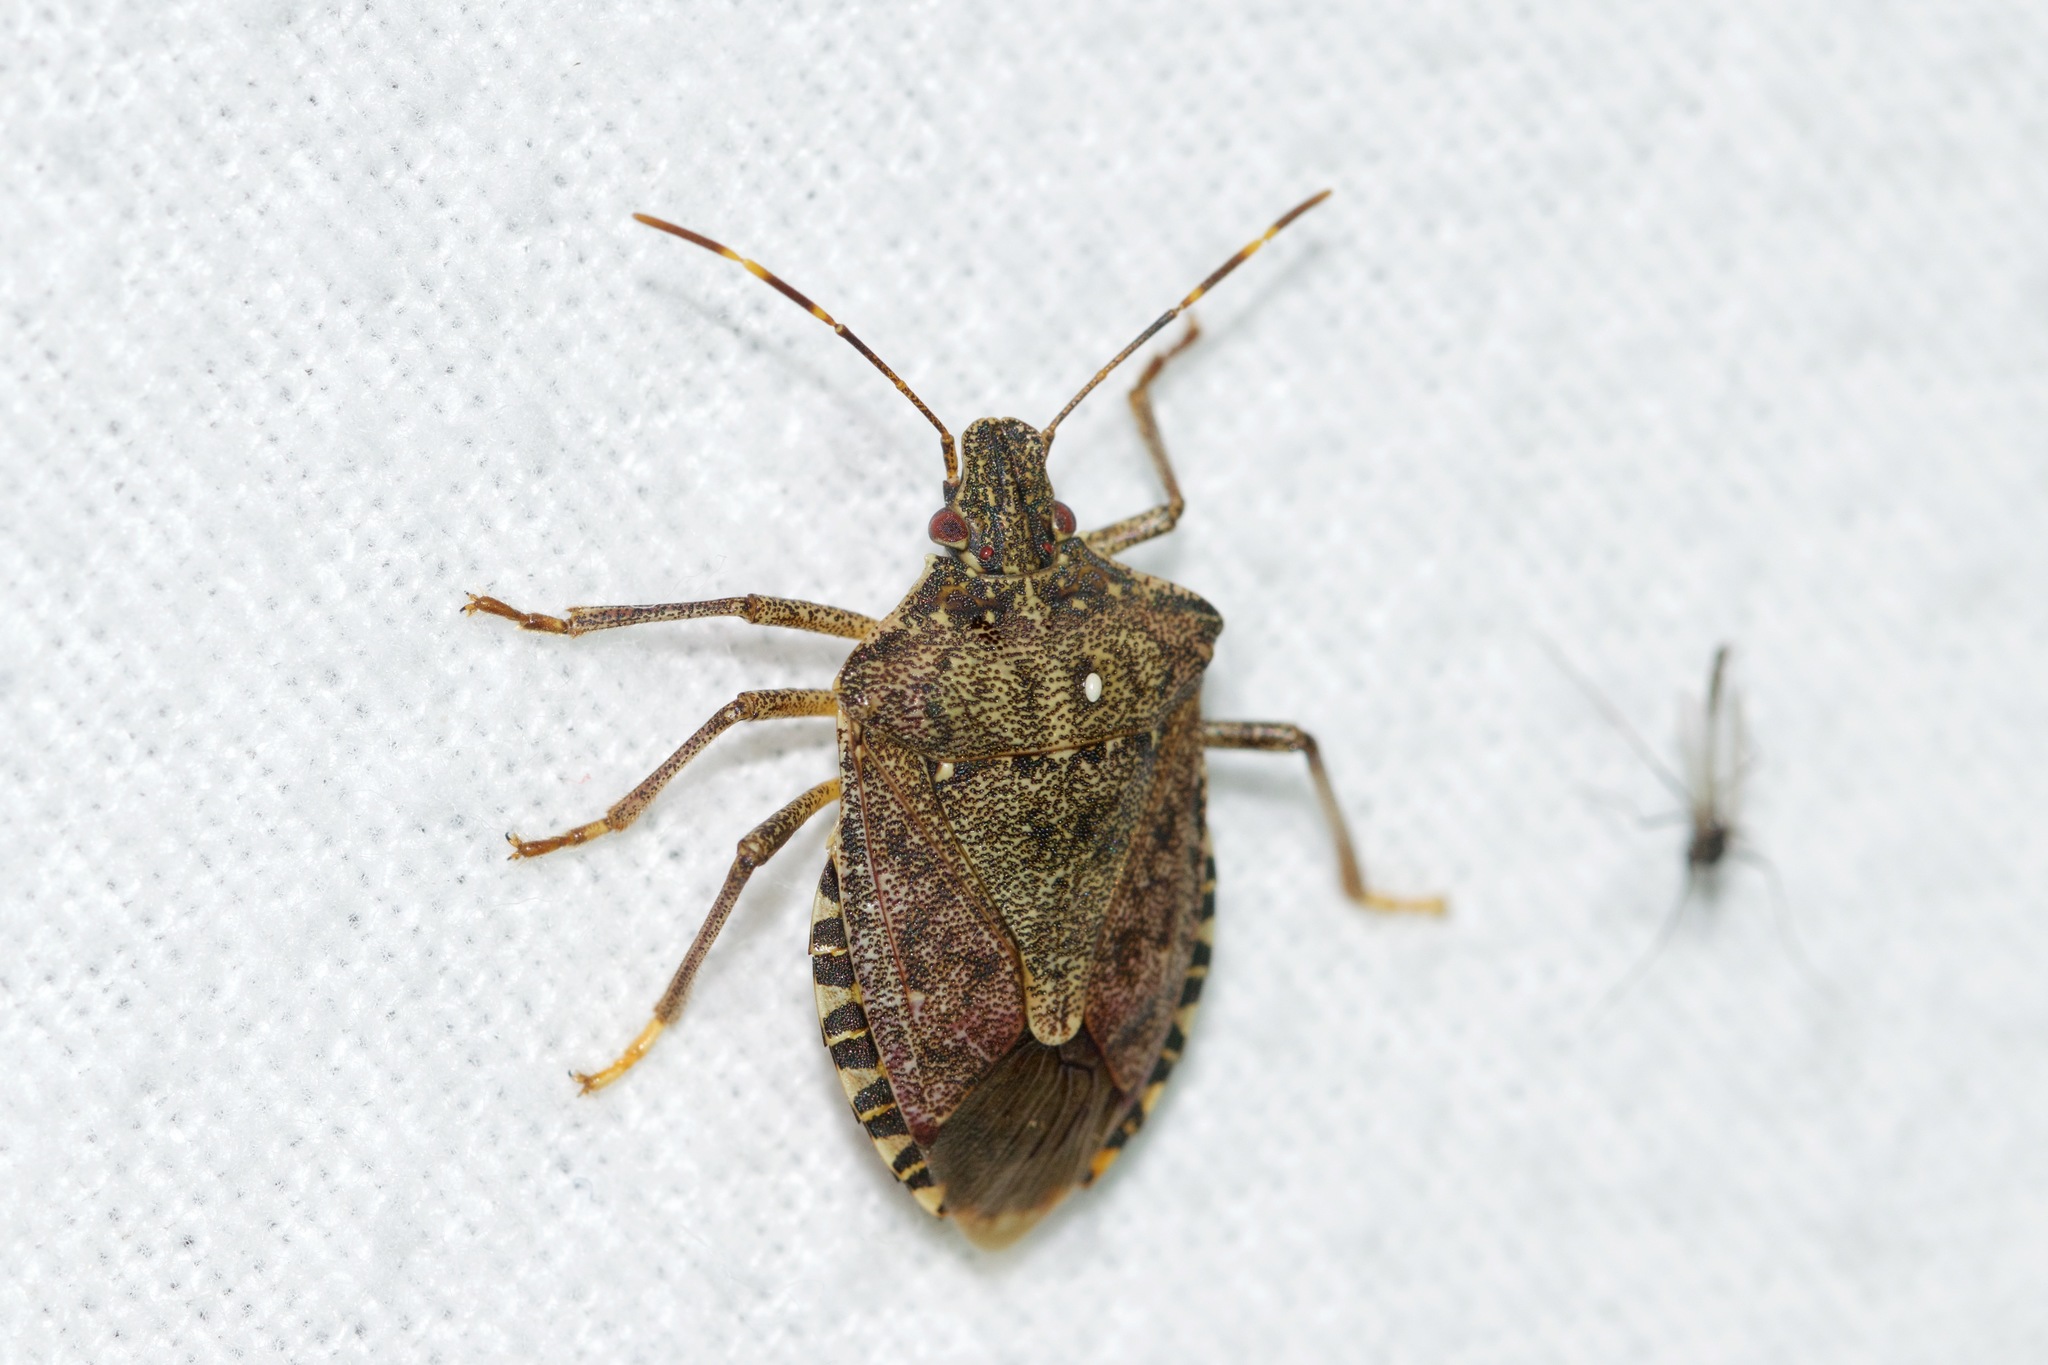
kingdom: Animalia
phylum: Arthropoda
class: Insecta
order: Hemiptera
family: Pentatomidae
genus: Halyomorpha
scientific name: Halyomorpha halys
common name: Brown marmorated stink bug
